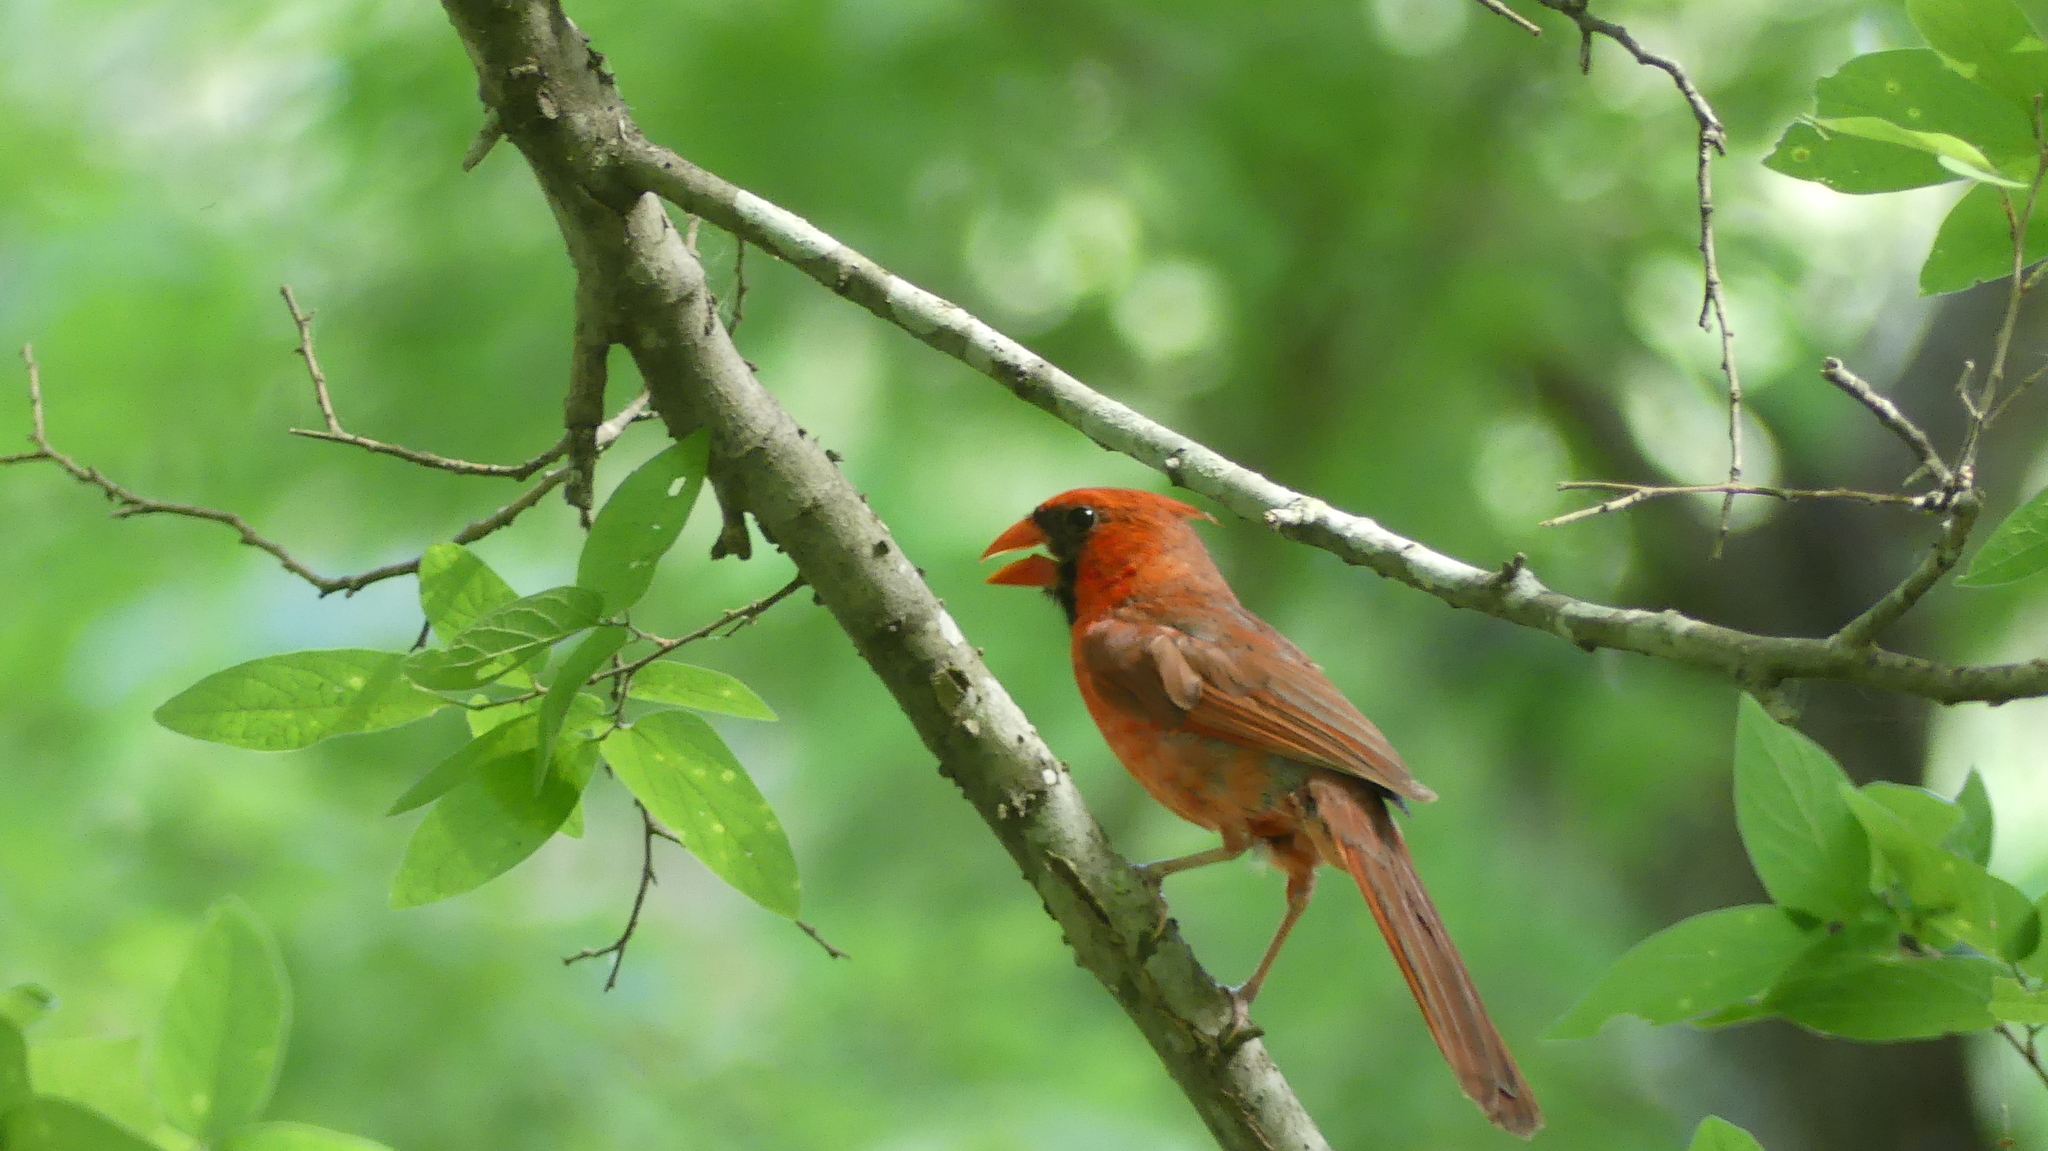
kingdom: Animalia
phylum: Chordata
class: Aves
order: Passeriformes
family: Cardinalidae
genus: Cardinalis
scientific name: Cardinalis cardinalis
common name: Northern cardinal
